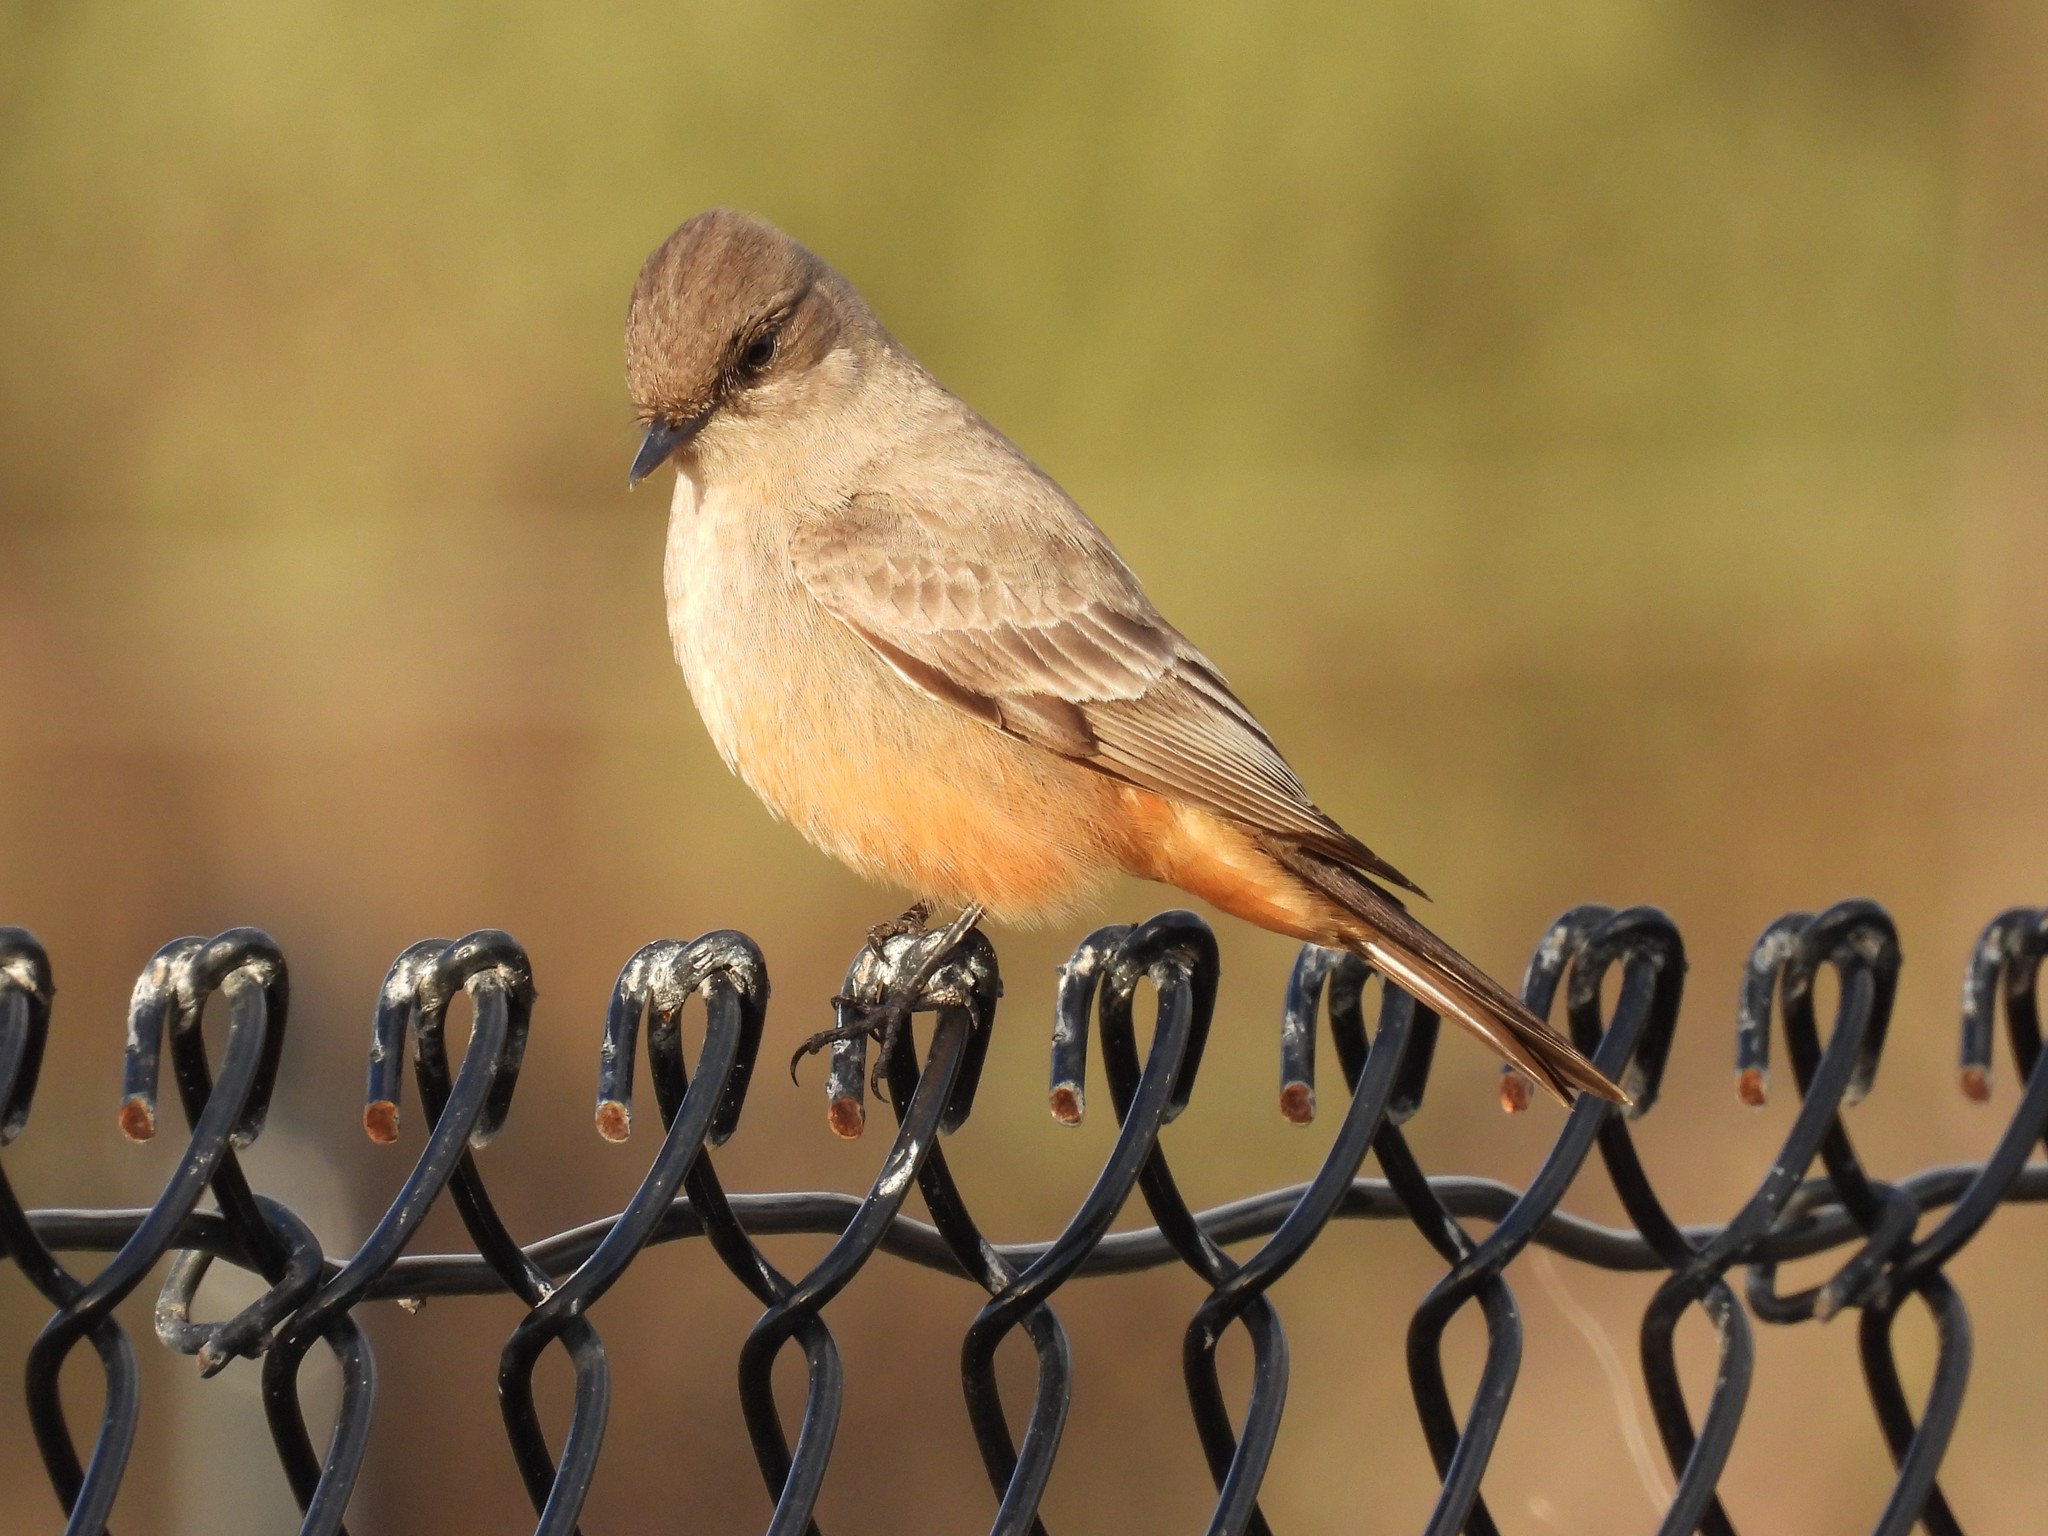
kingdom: Animalia
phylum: Chordata
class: Aves
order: Passeriformes
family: Tyrannidae
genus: Sayornis
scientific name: Sayornis saya
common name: Say's phoebe
